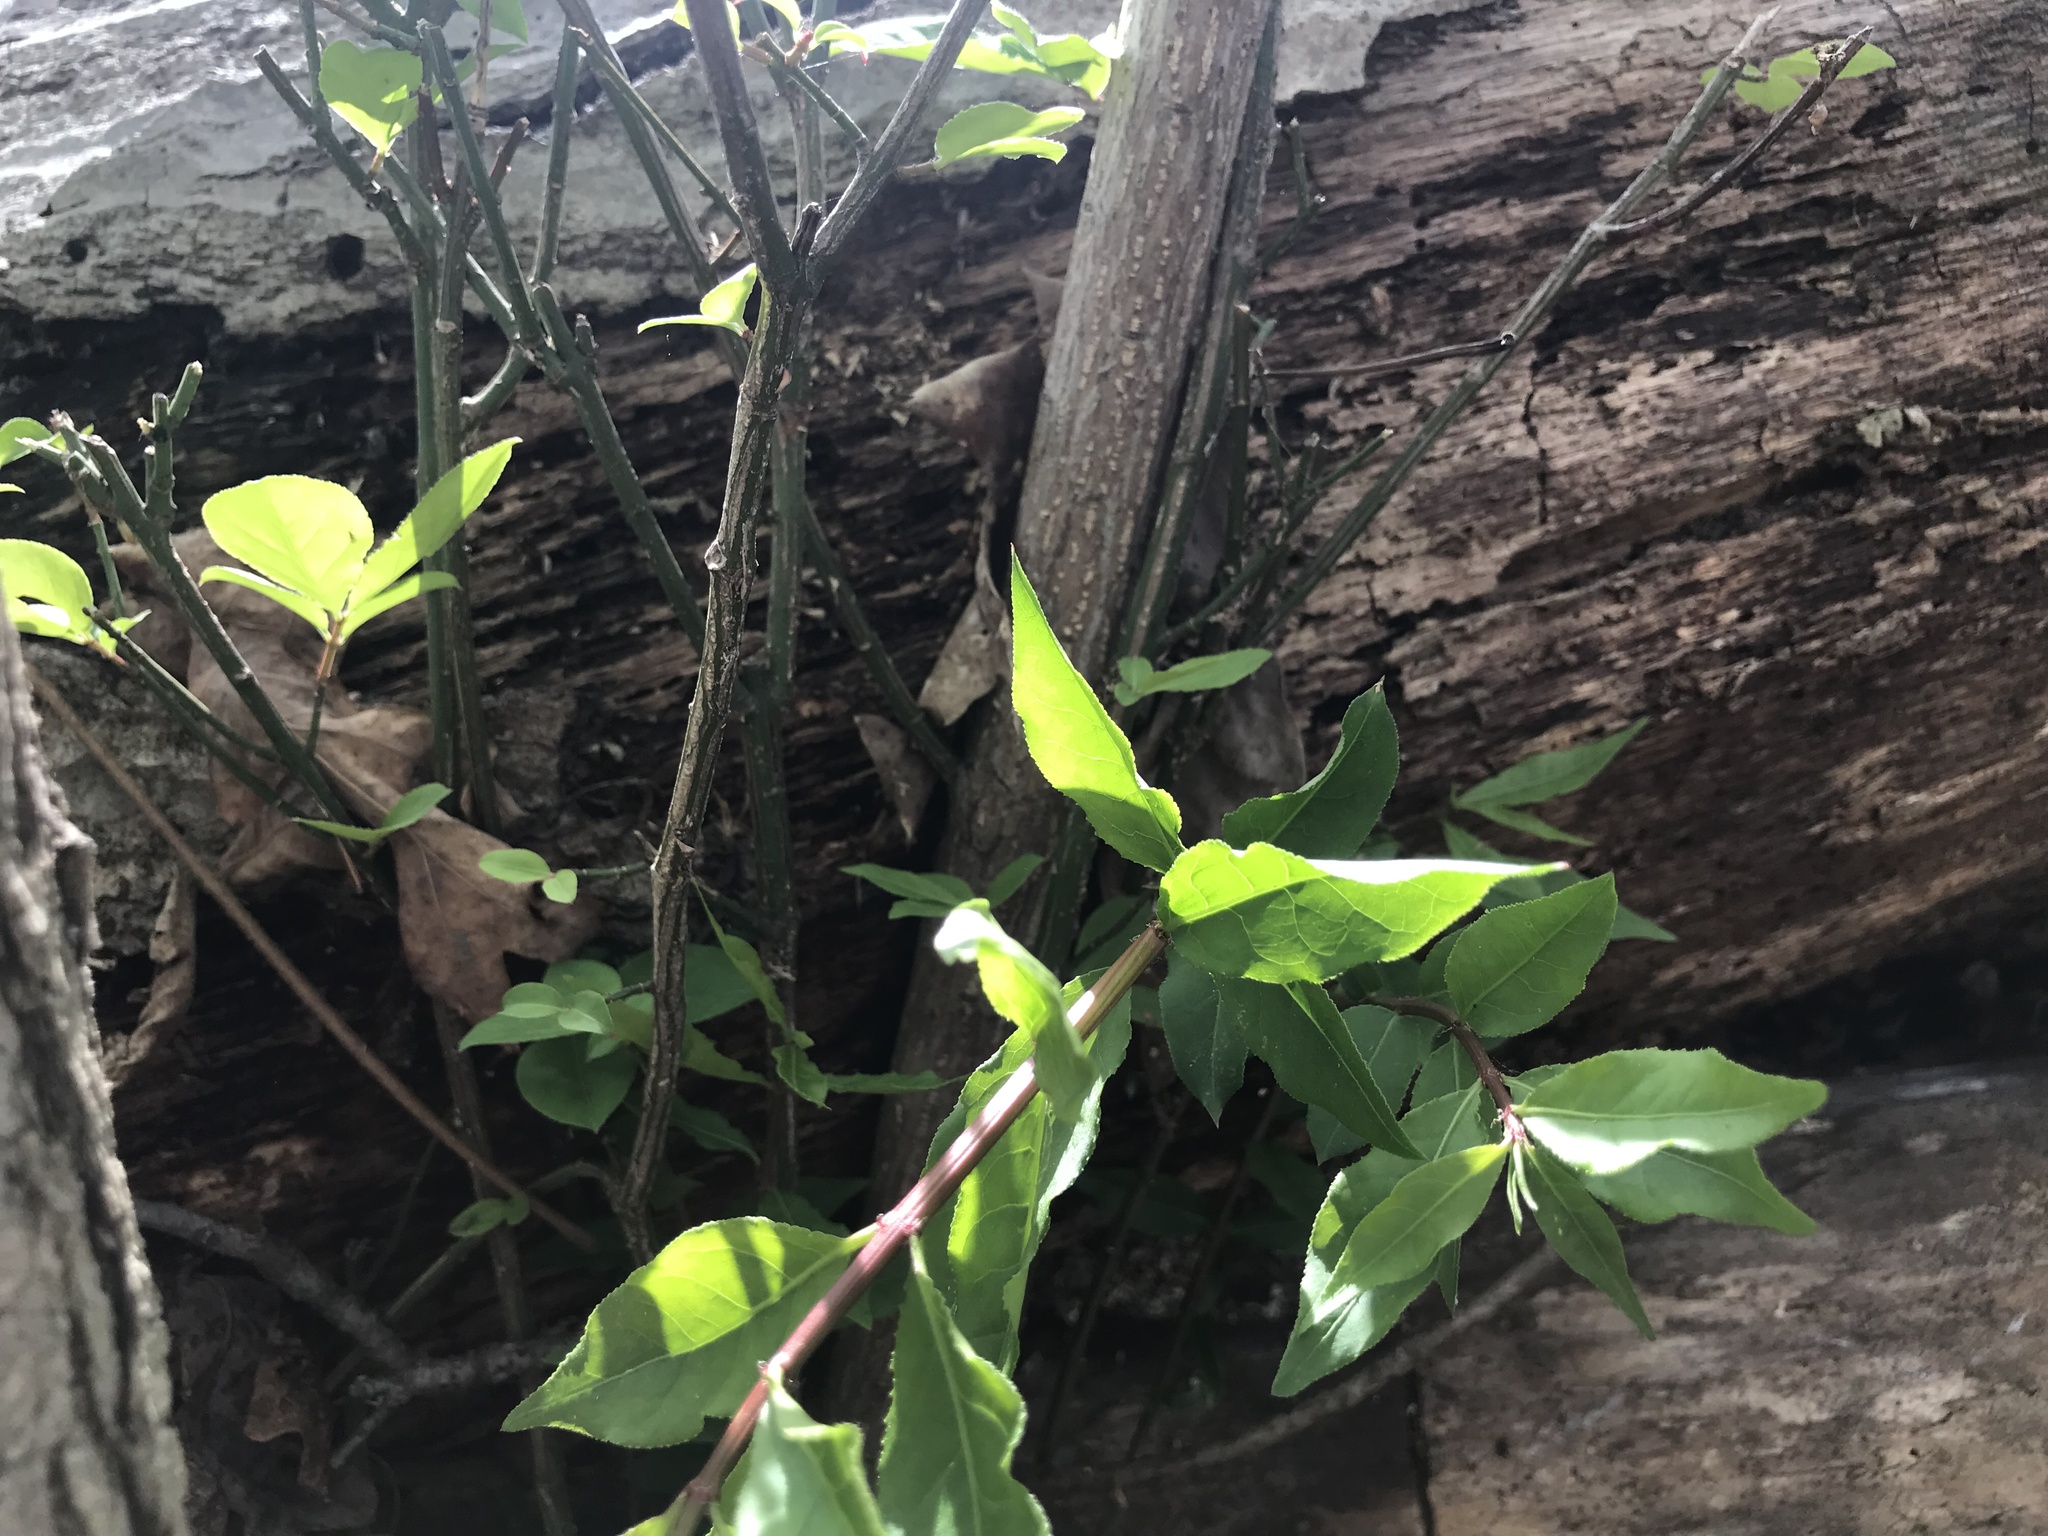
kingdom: Plantae
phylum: Tracheophyta
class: Magnoliopsida
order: Celastrales
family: Celastraceae
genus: Euonymus
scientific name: Euonymus alatus
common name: Winged euonymus
